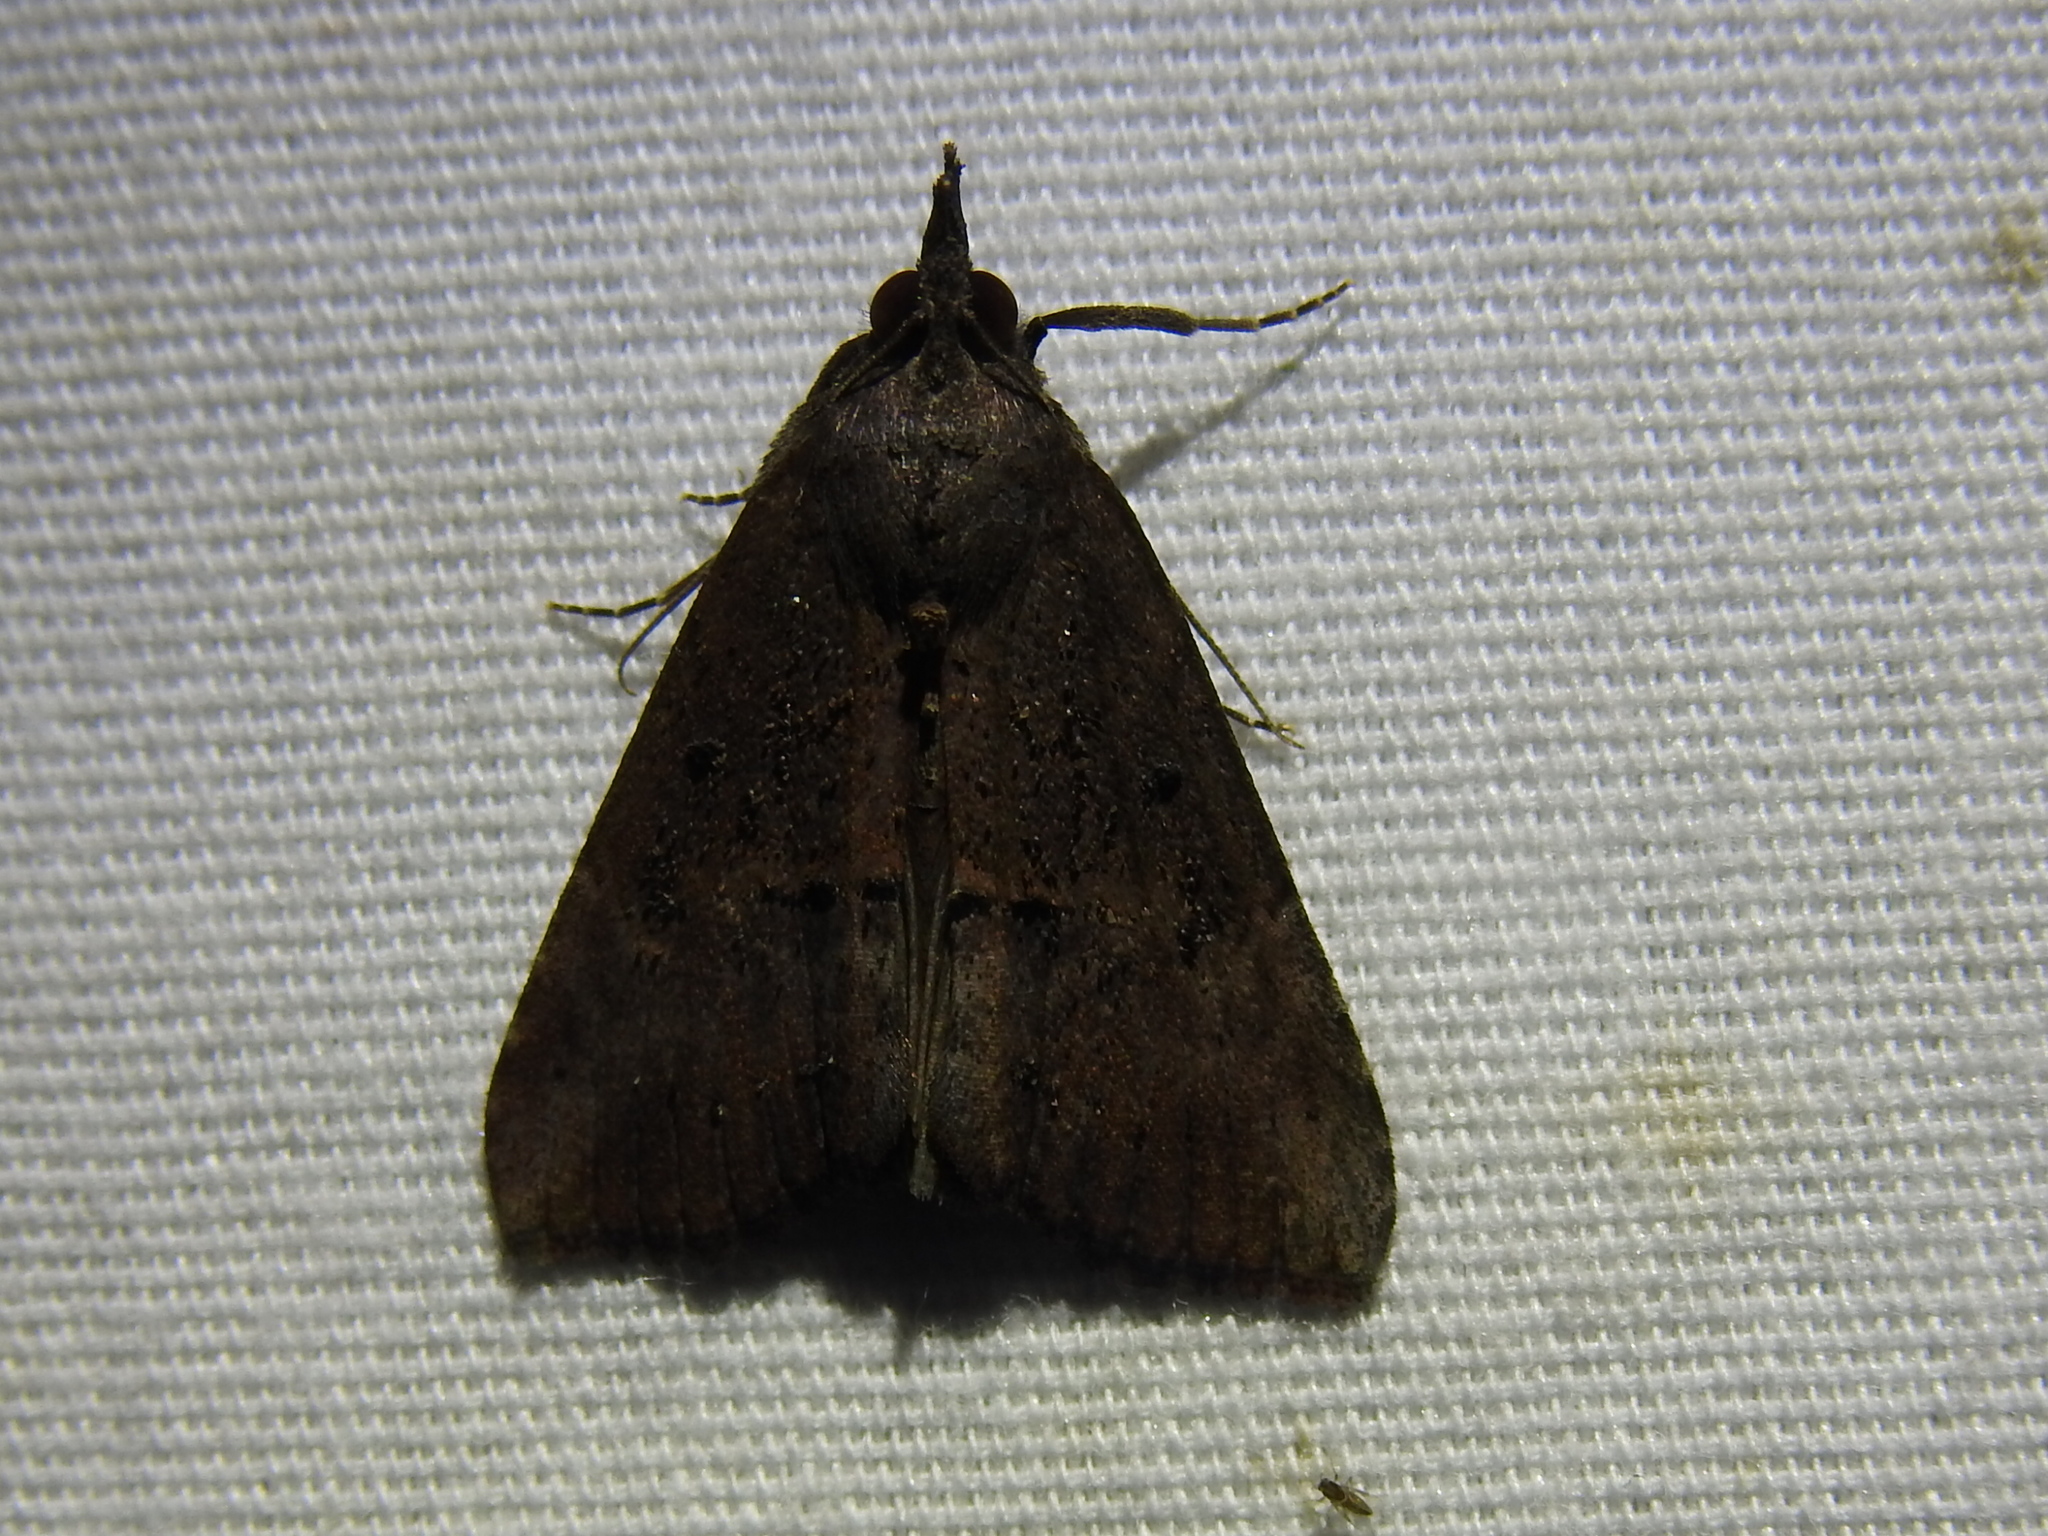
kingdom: Animalia
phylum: Arthropoda
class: Insecta
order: Lepidoptera
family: Erebidae
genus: Hypena
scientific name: Hypena scabra
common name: Green cloverworm
